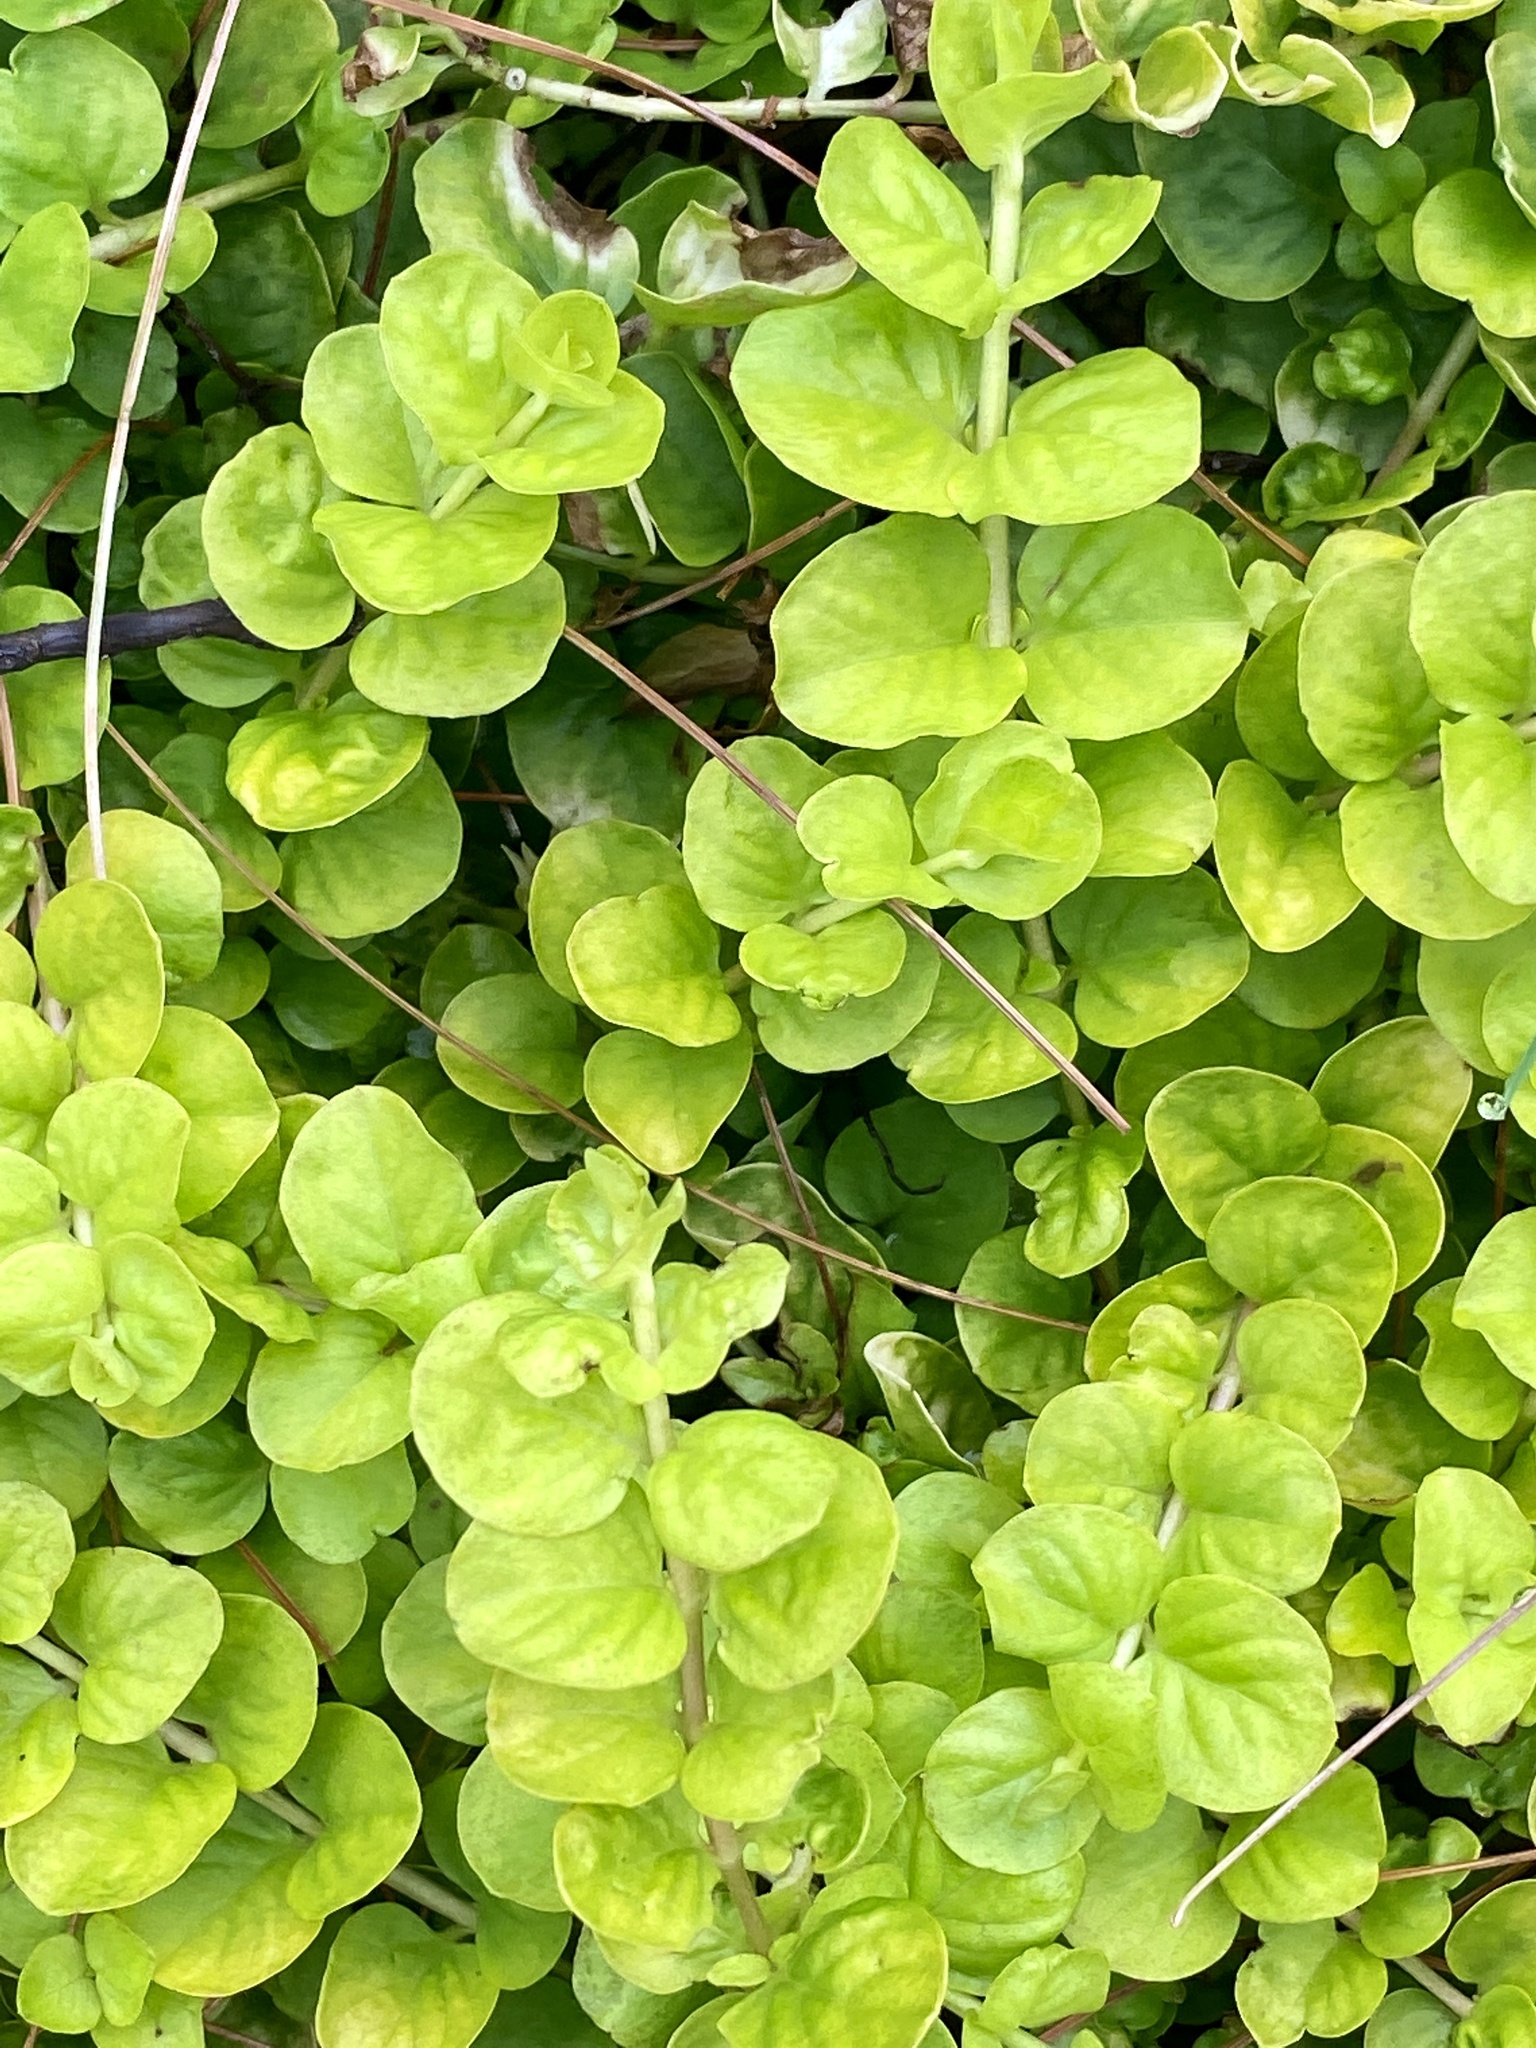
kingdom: Plantae
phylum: Tracheophyta
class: Magnoliopsida
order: Ericales
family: Primulaceae
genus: Lysimachia
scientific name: Lysimachia nummularia
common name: Moneywort
